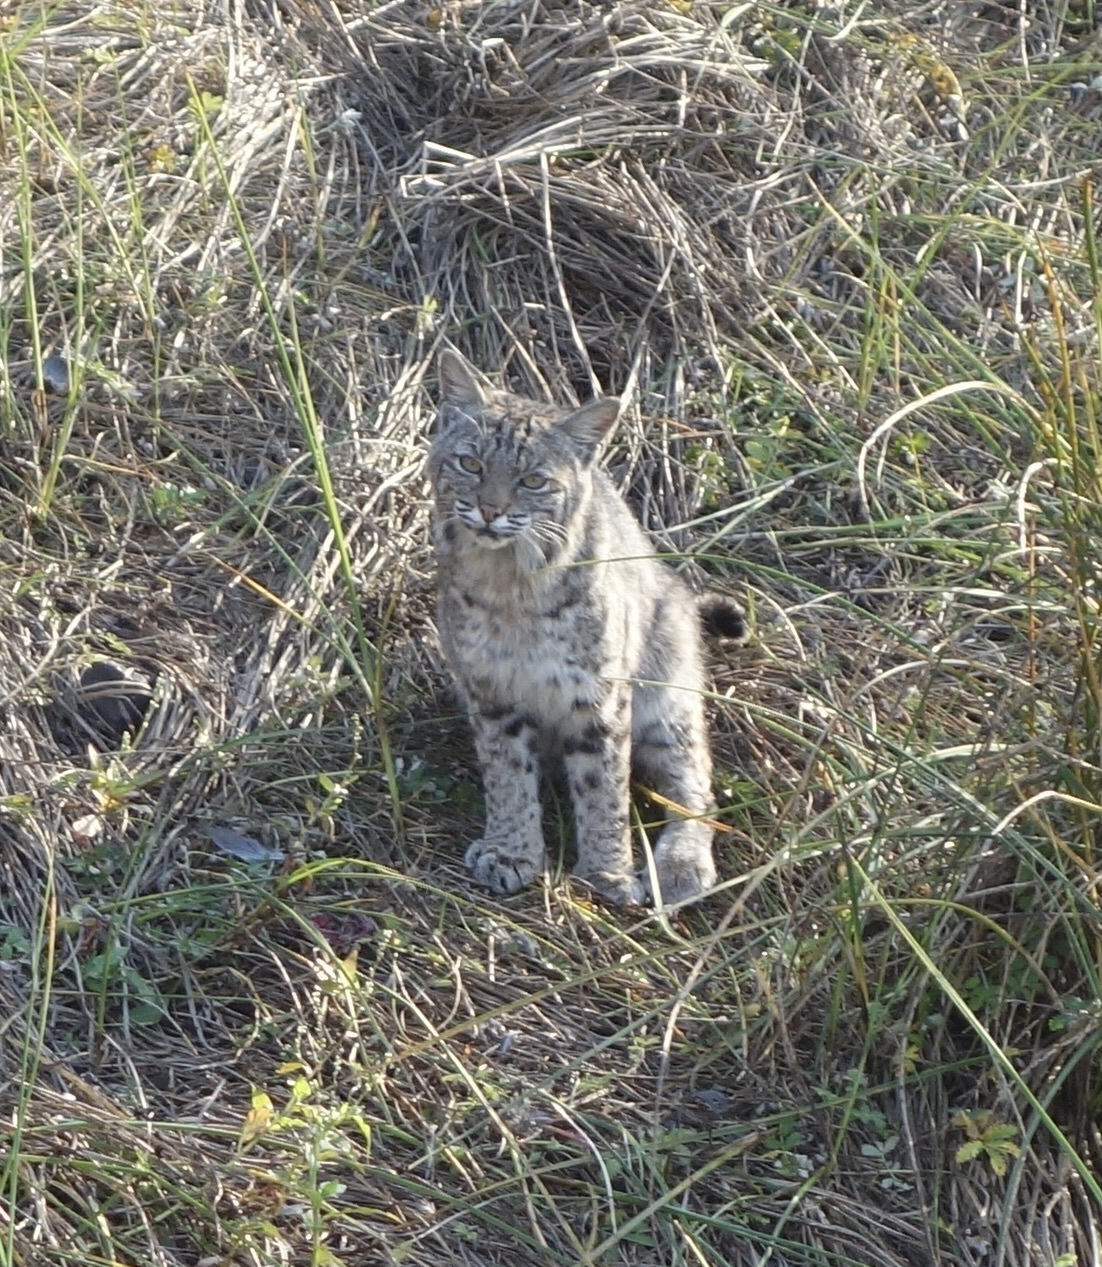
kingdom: Animalia
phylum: Chordata
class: Mammalia
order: Carnivora
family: Felidae
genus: Lynx
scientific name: Lynx rufus
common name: Bobcat
